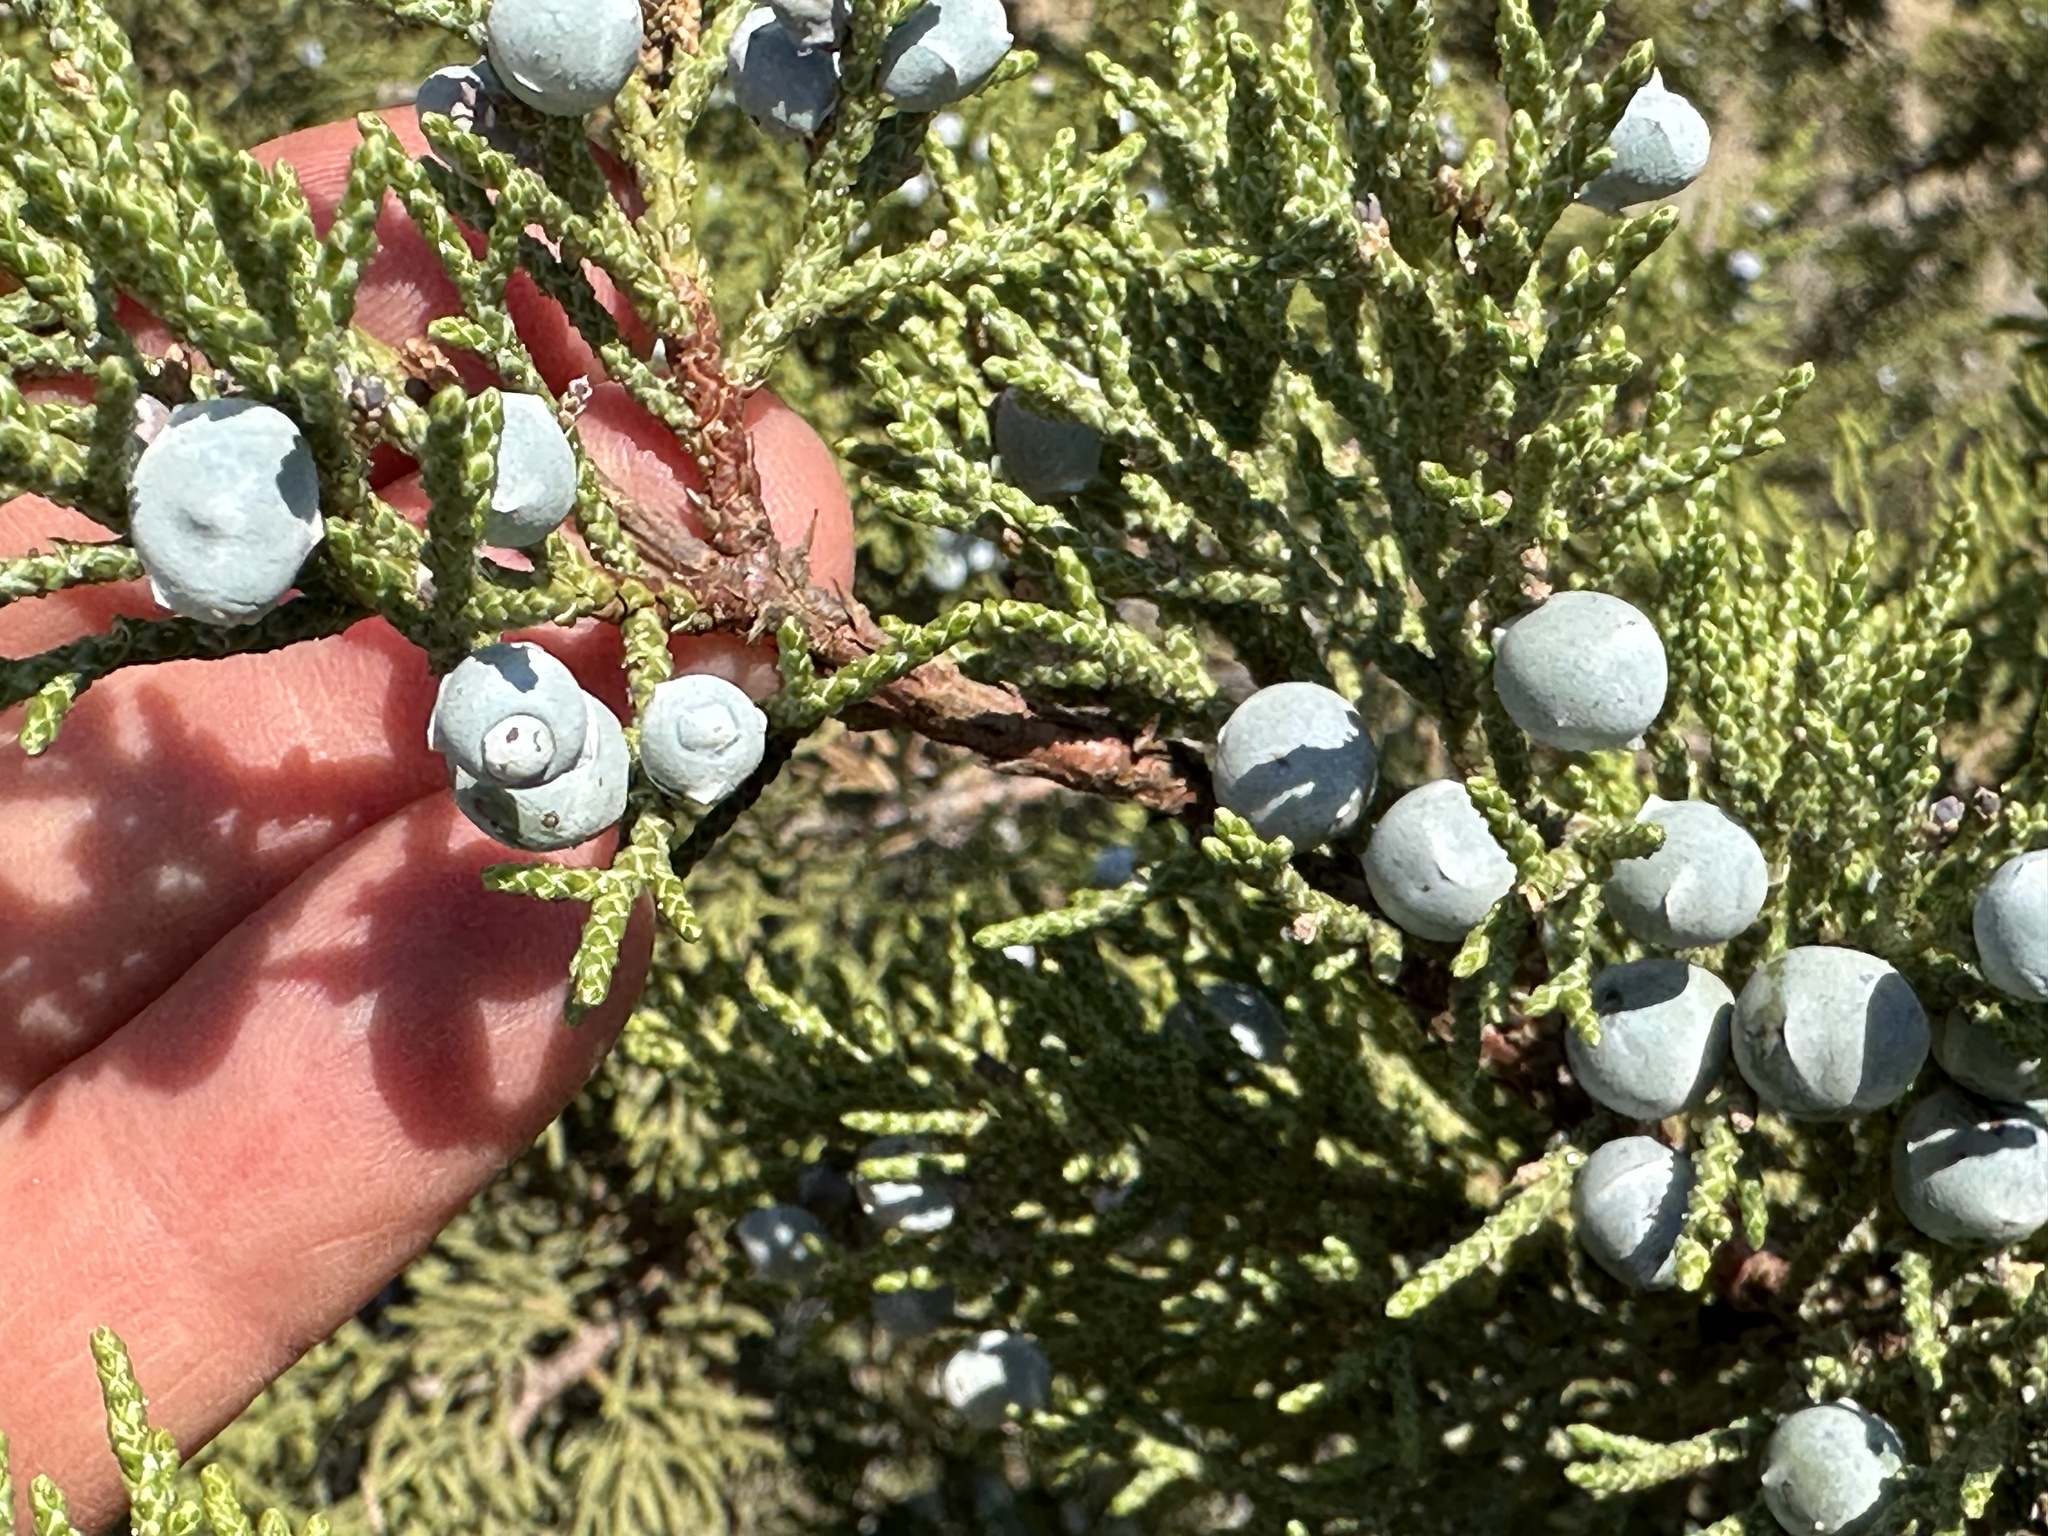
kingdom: Plantae
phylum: Tracheophyta
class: Pinopsida
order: Pinales
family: Cupressaceae
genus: Juniperus
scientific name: Juniperus occidentalis
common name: Western juniper
